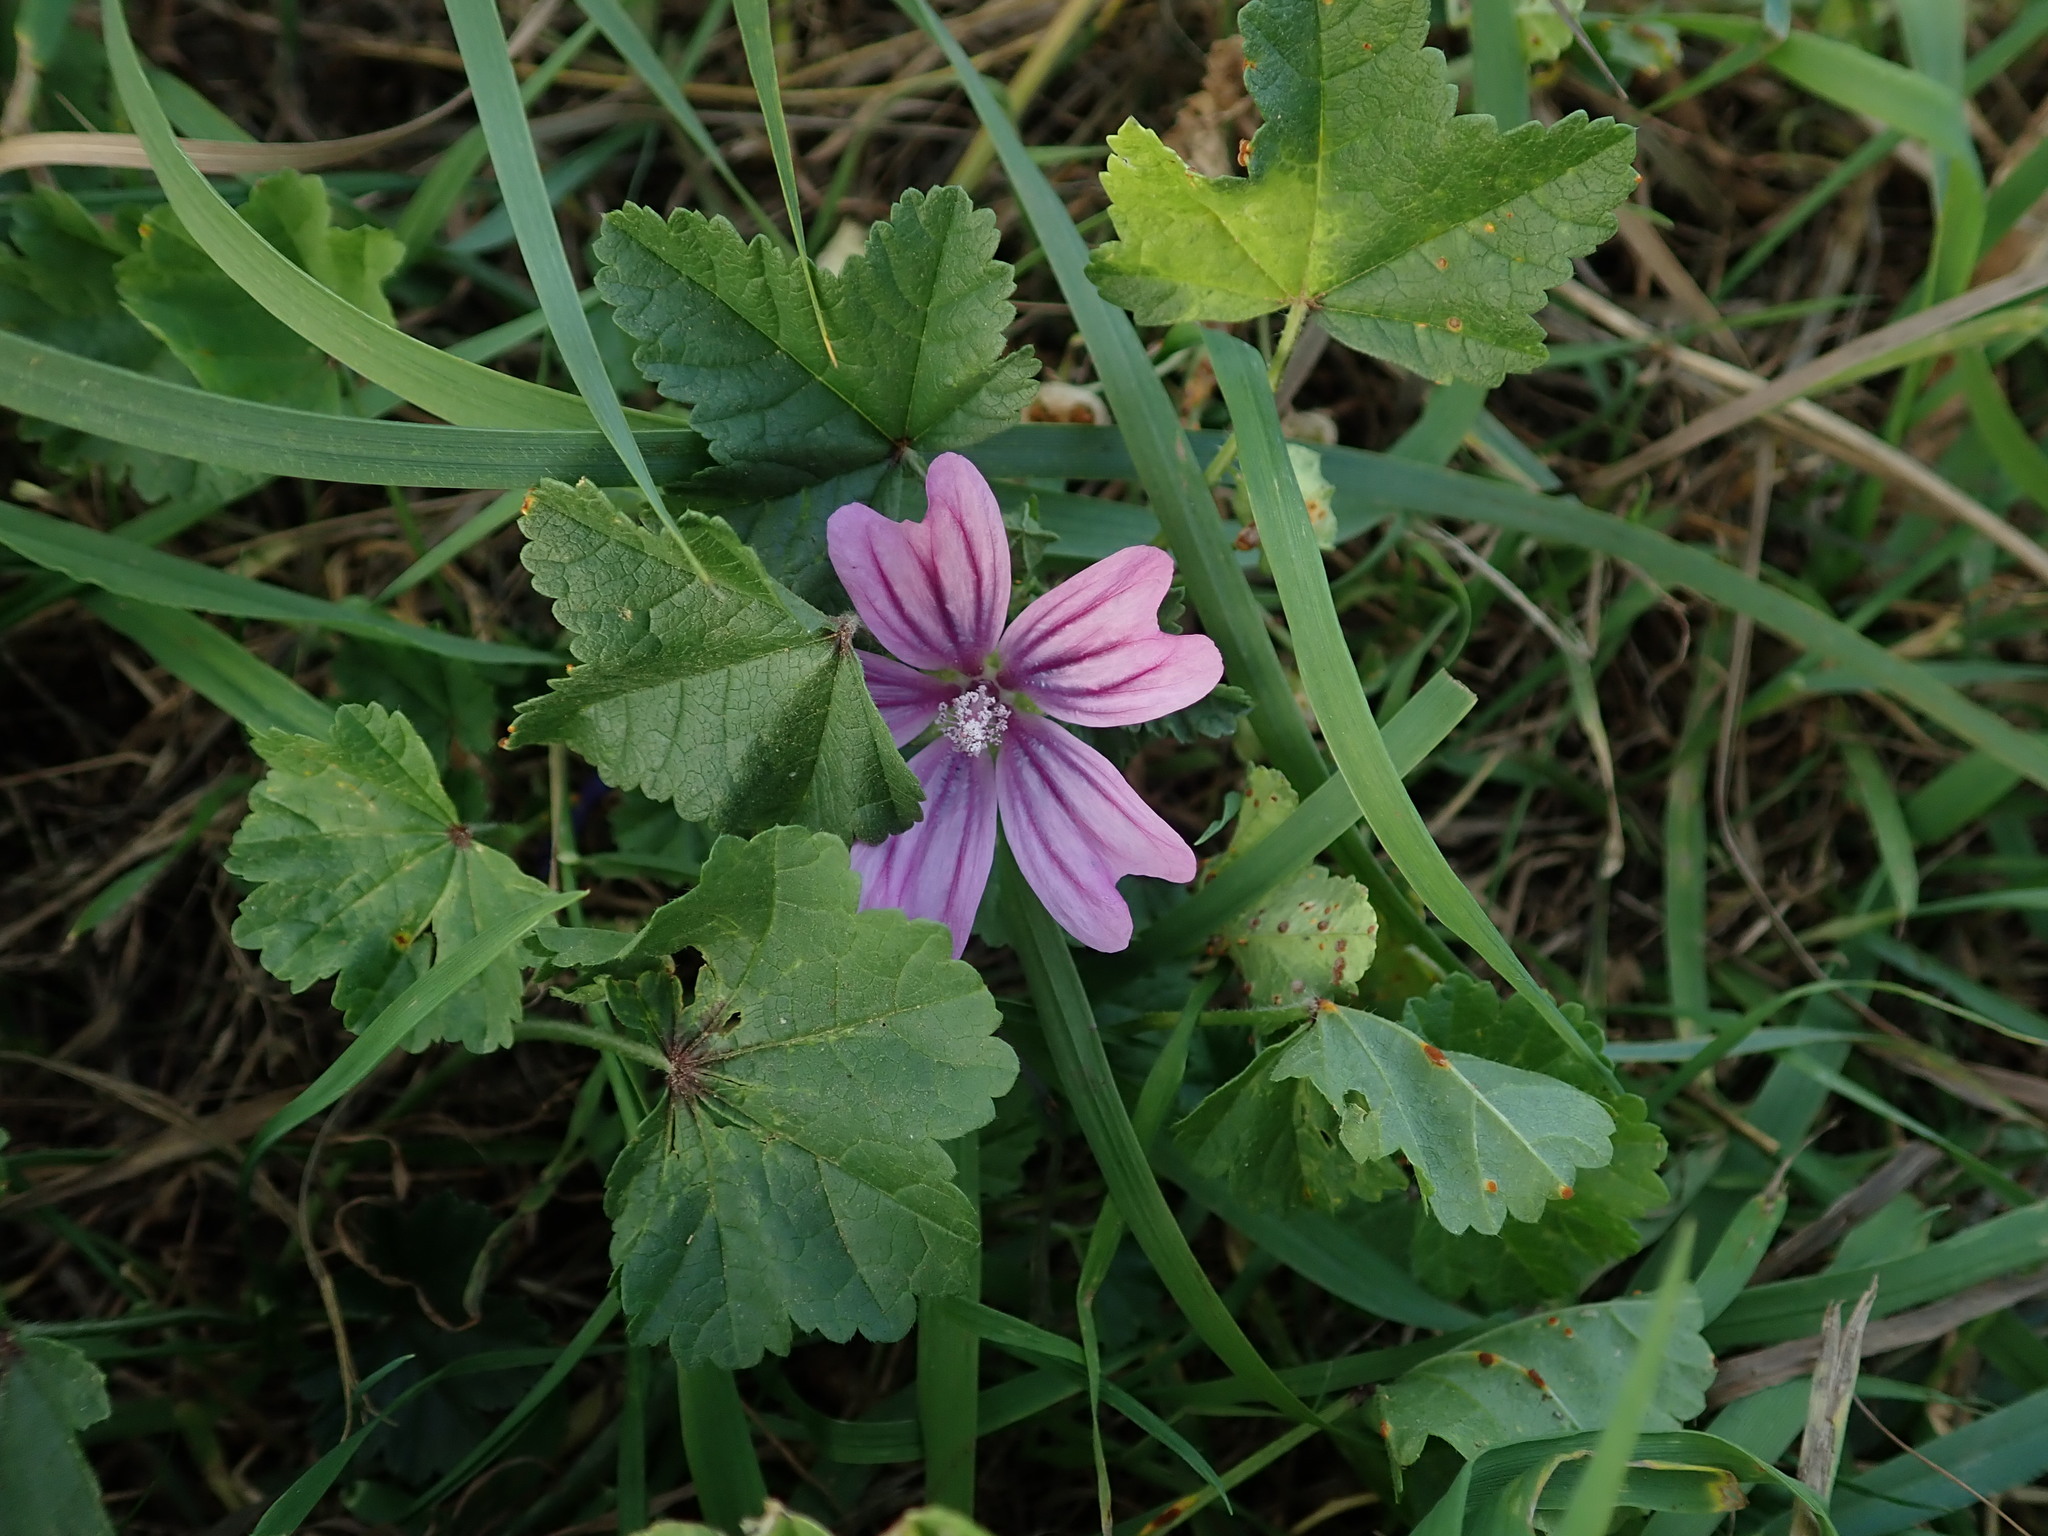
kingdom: Plantae
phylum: Tracheophyta
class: Magnoliopsida
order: Malvales
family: Malvaceae
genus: Malva
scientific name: Malva sylvestris
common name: Common mallow
